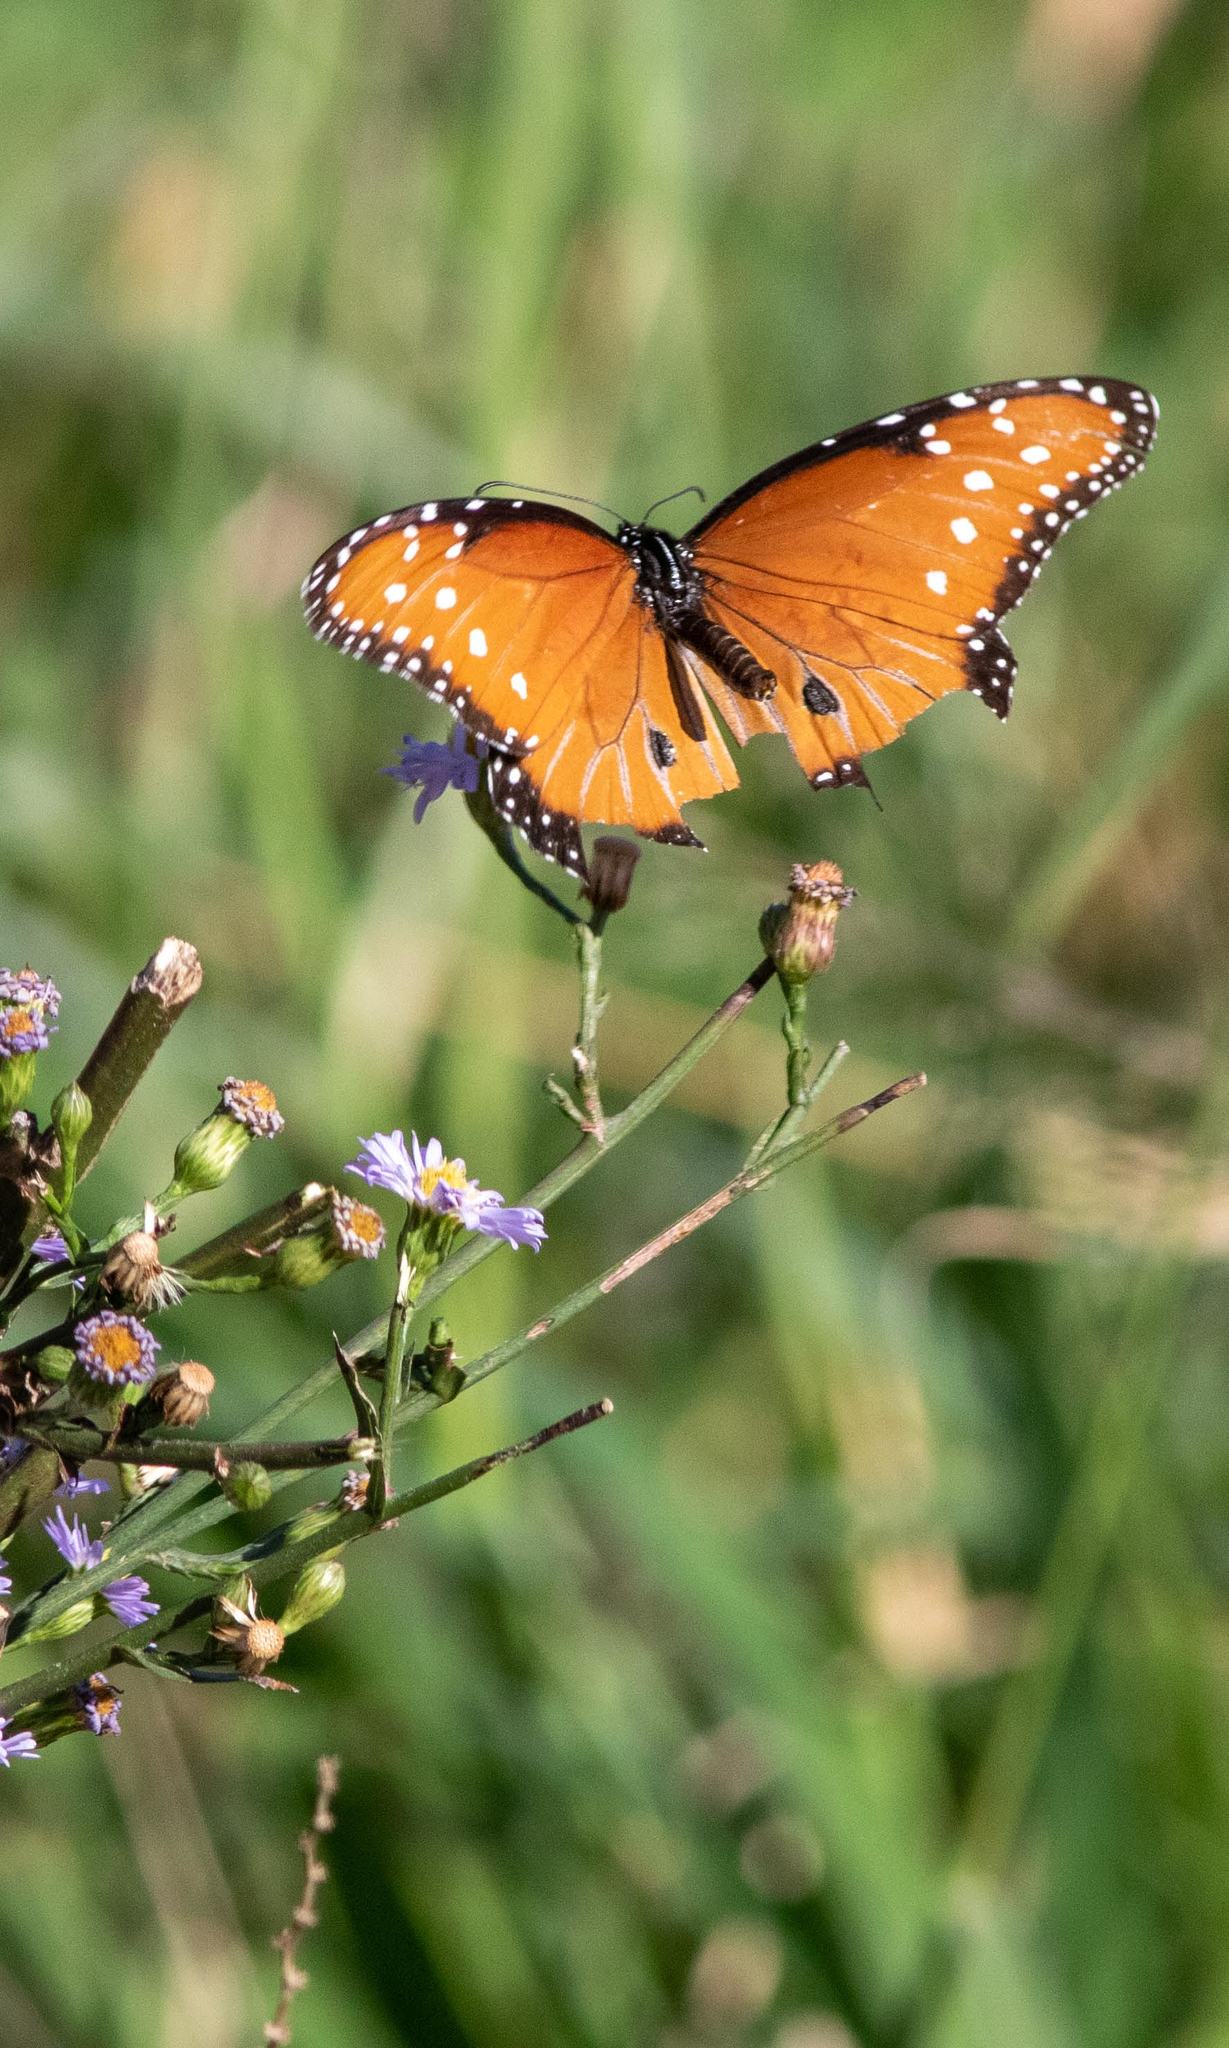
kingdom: Animalia
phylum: Arthropoda
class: Insecta
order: Lepidoptera
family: Nymphalidae
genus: Danaus
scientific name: Danaus gilippus
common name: Queen
